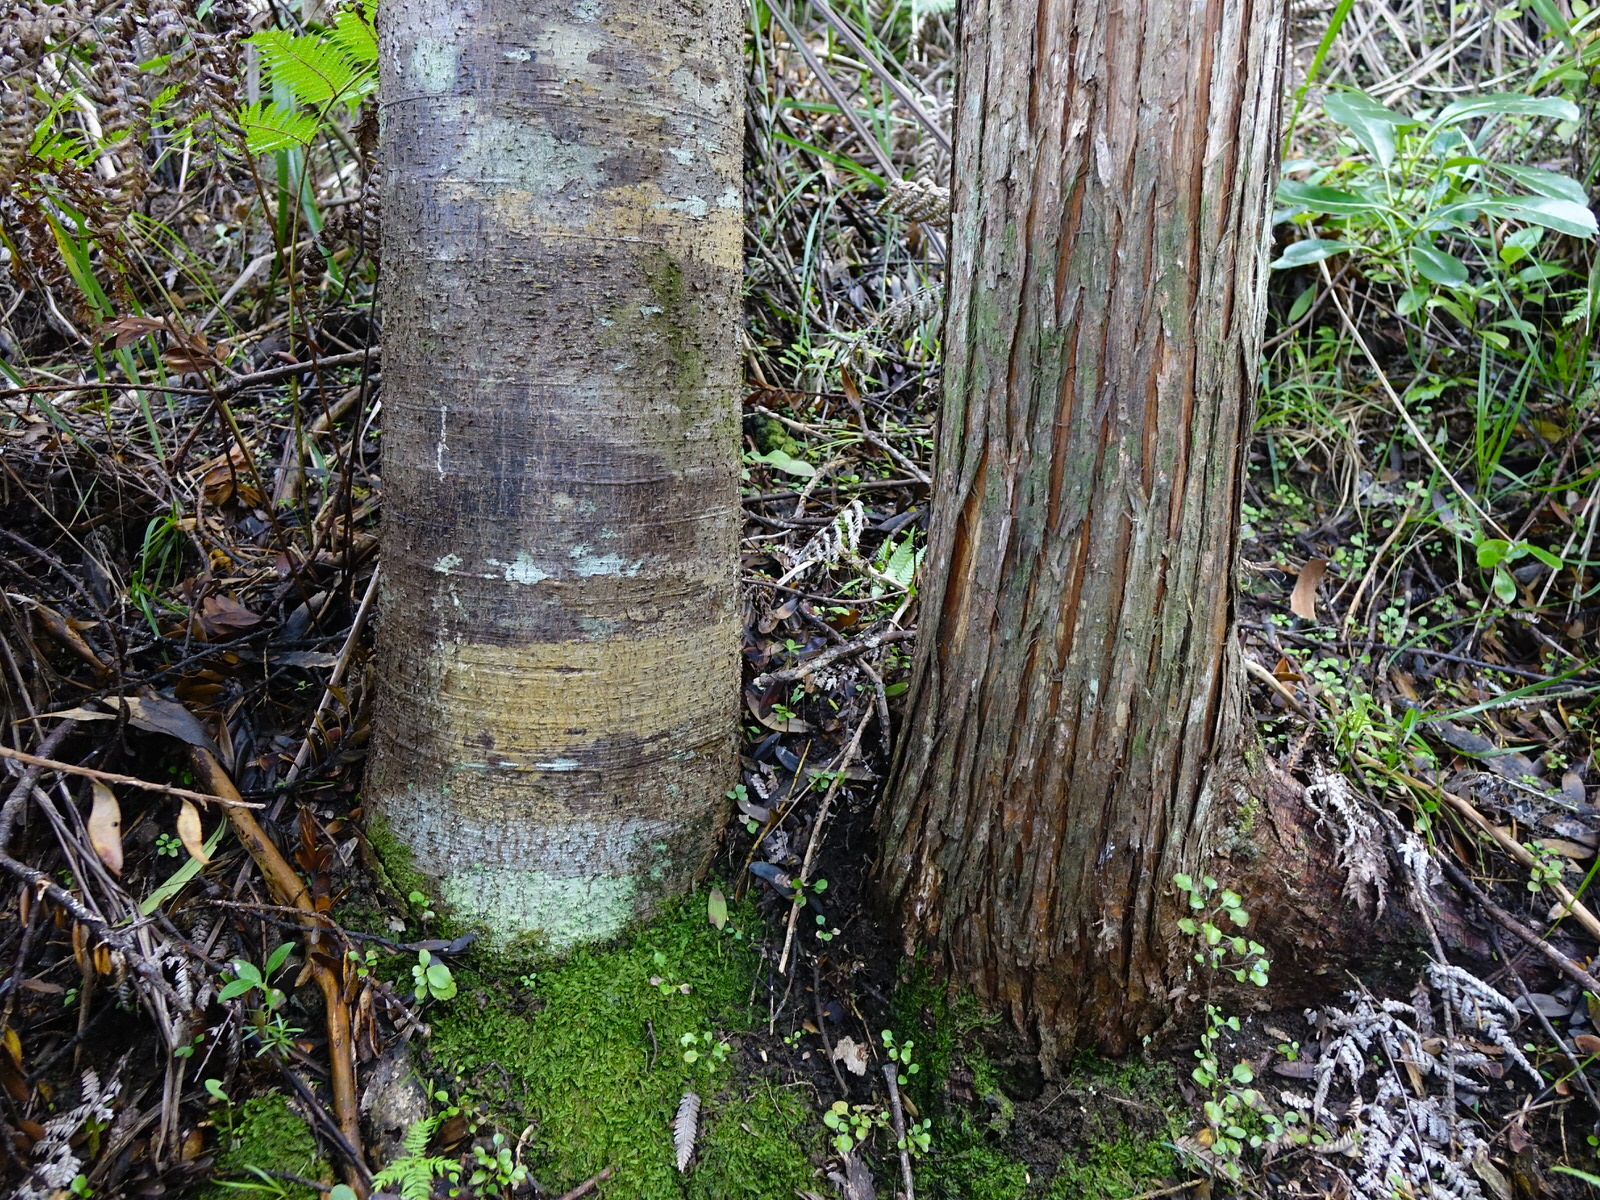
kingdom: Plantae
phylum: Tracheophyta
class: Pinopsida
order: Pinales
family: Araucariaceae
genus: Agathis
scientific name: Agathis australis
